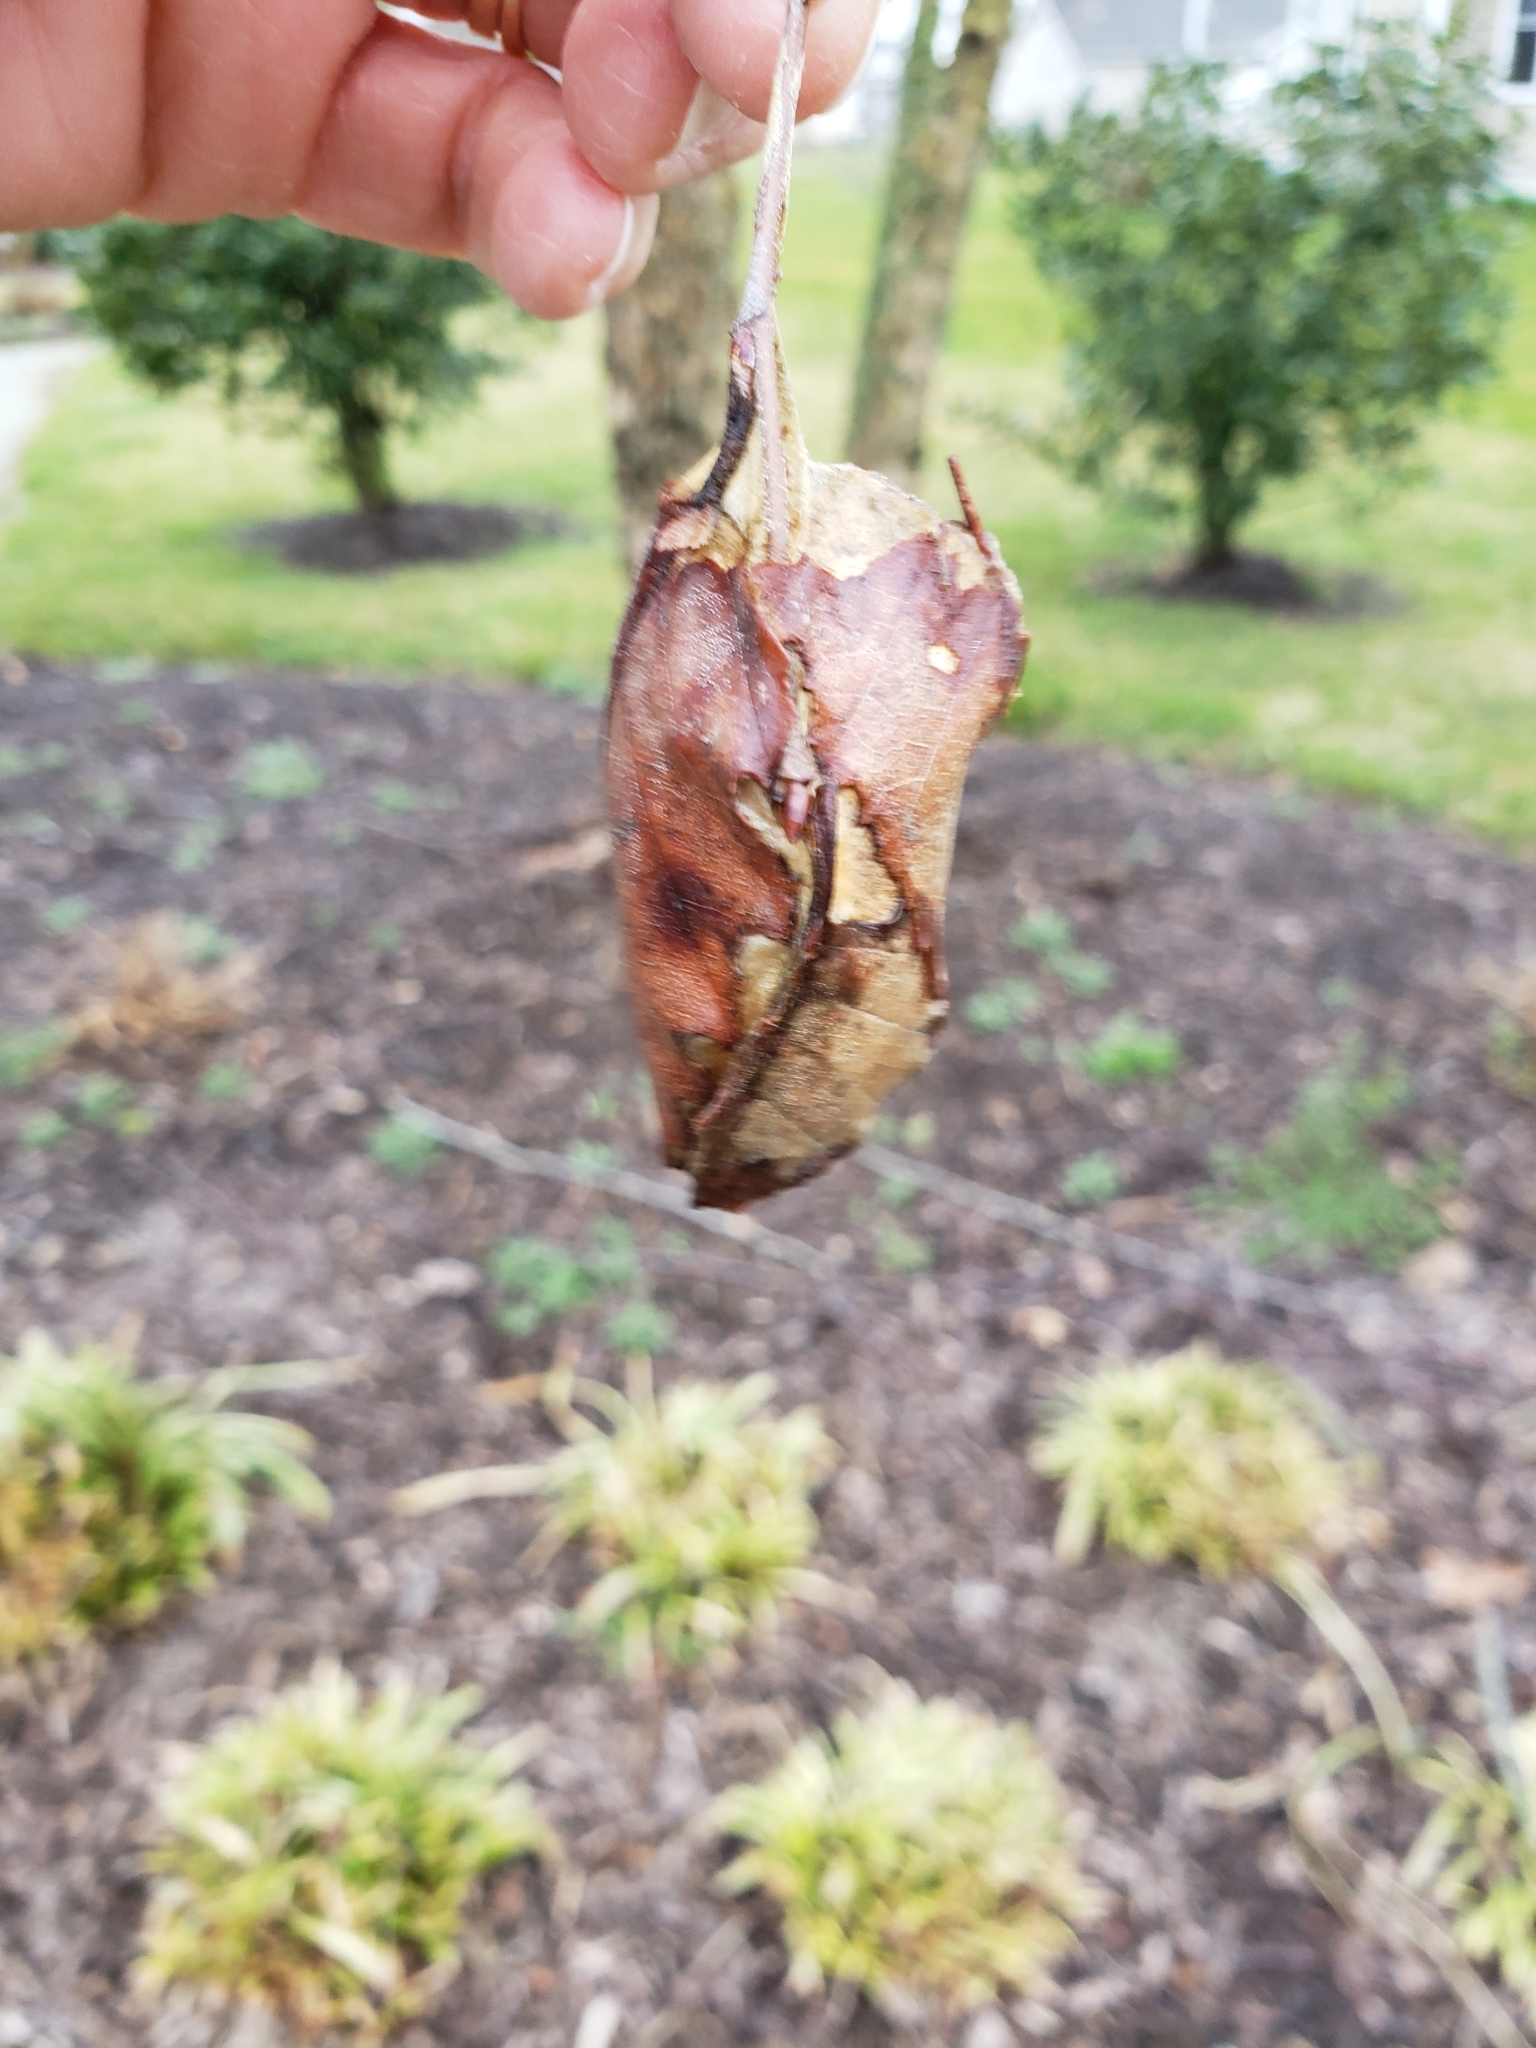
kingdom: Animalia
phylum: Arthropoda
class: Insecta
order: Lepidoptera
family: Saturniidae
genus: Antheraea
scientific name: Antheraea polyphemus
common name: Polyphemus moth
